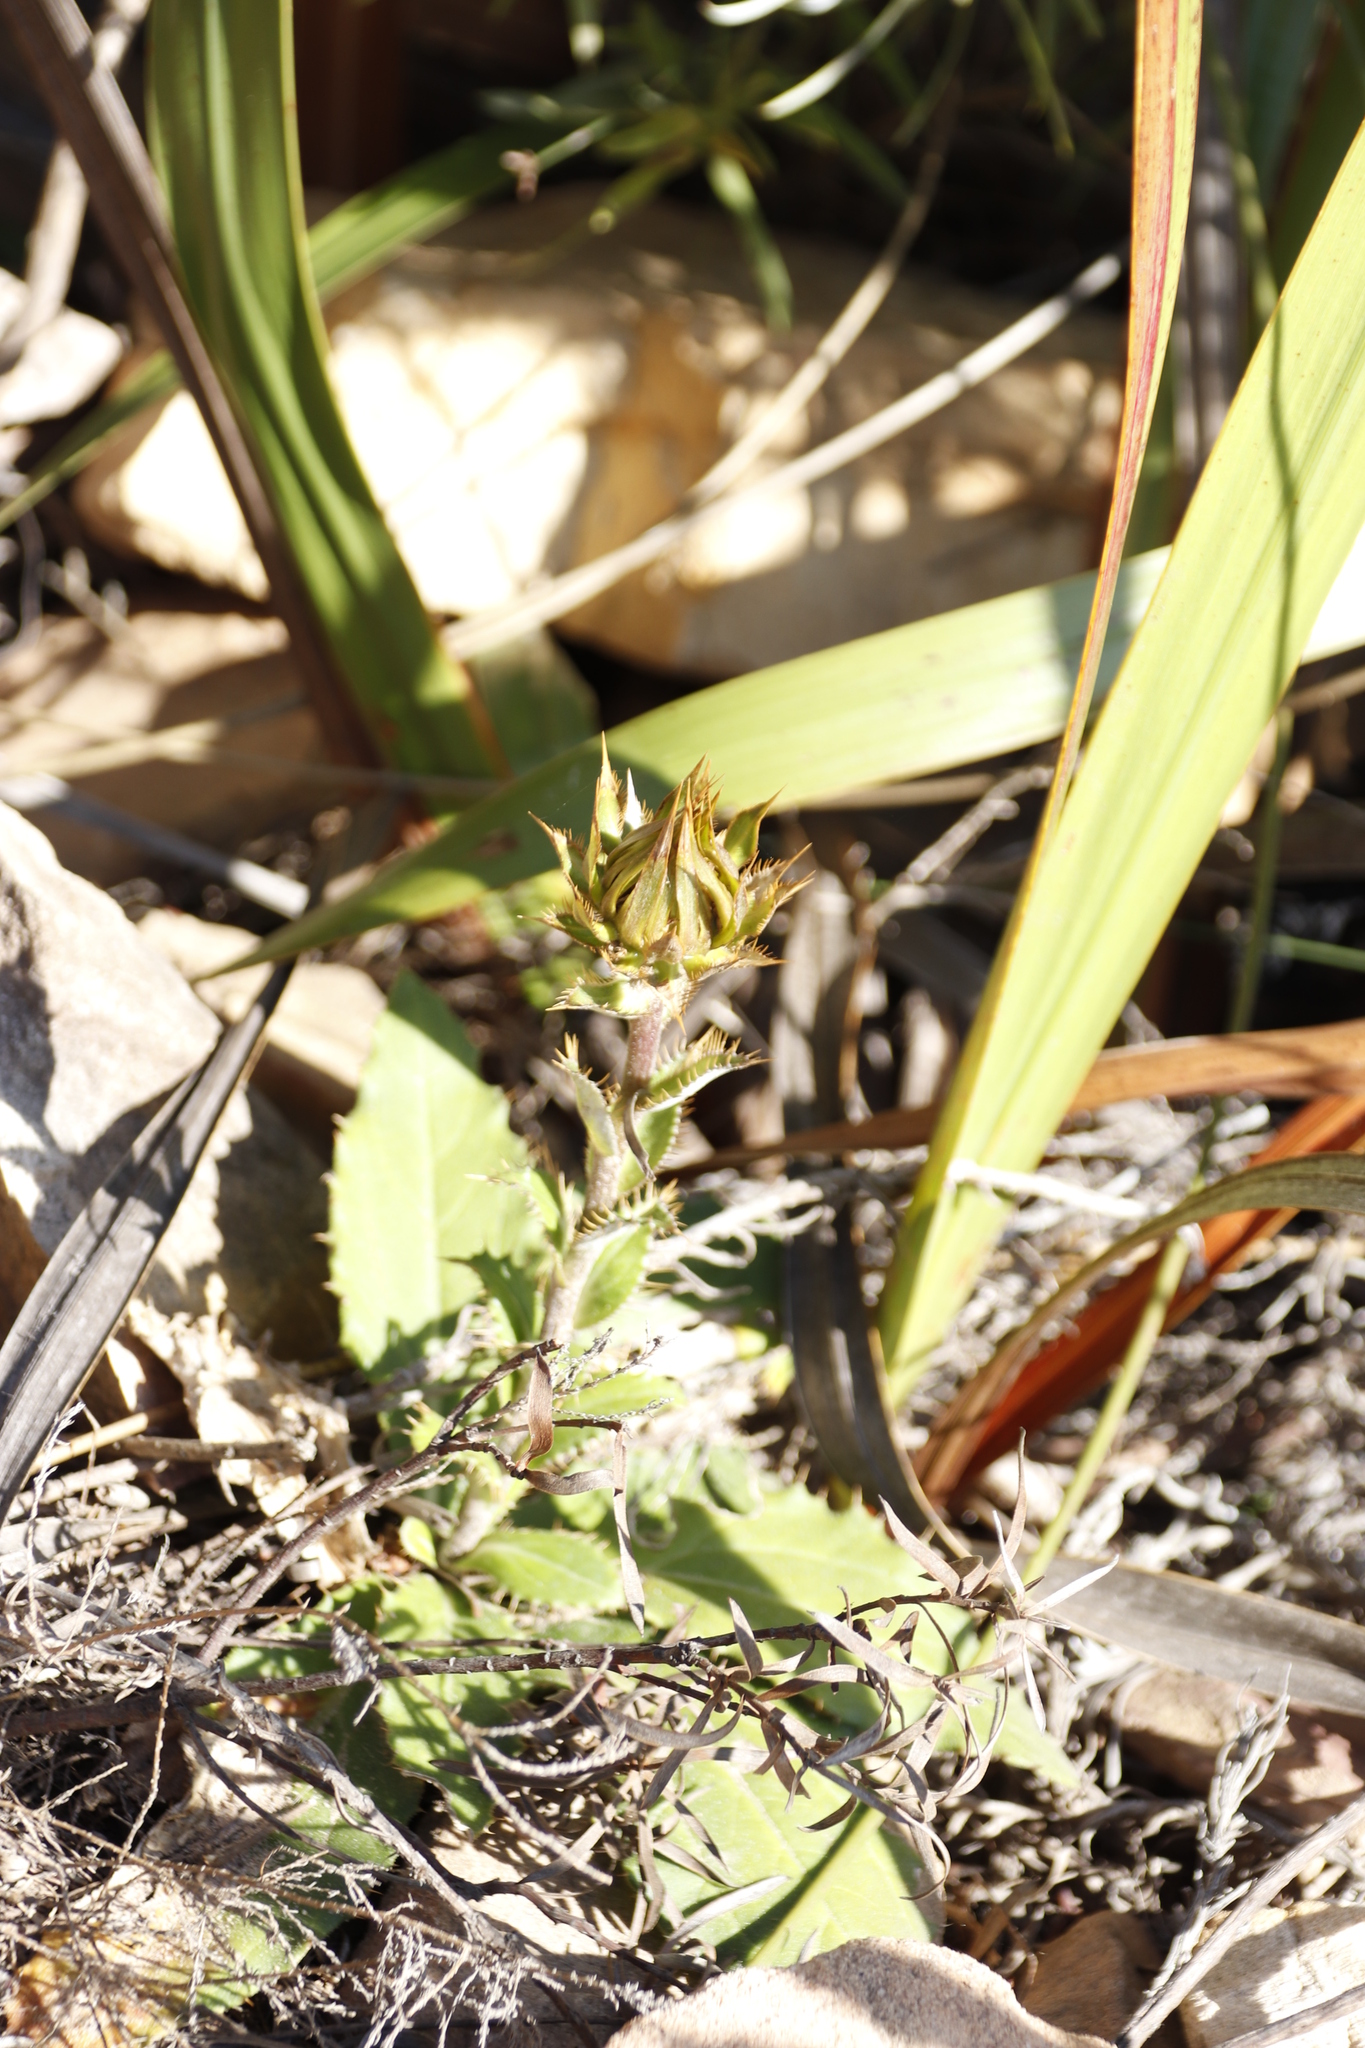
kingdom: Plantae
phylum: Tracheophyta
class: Magnoliopsida
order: Asterales
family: Asteraceae
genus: Berkheya
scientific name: Berkheya armata
